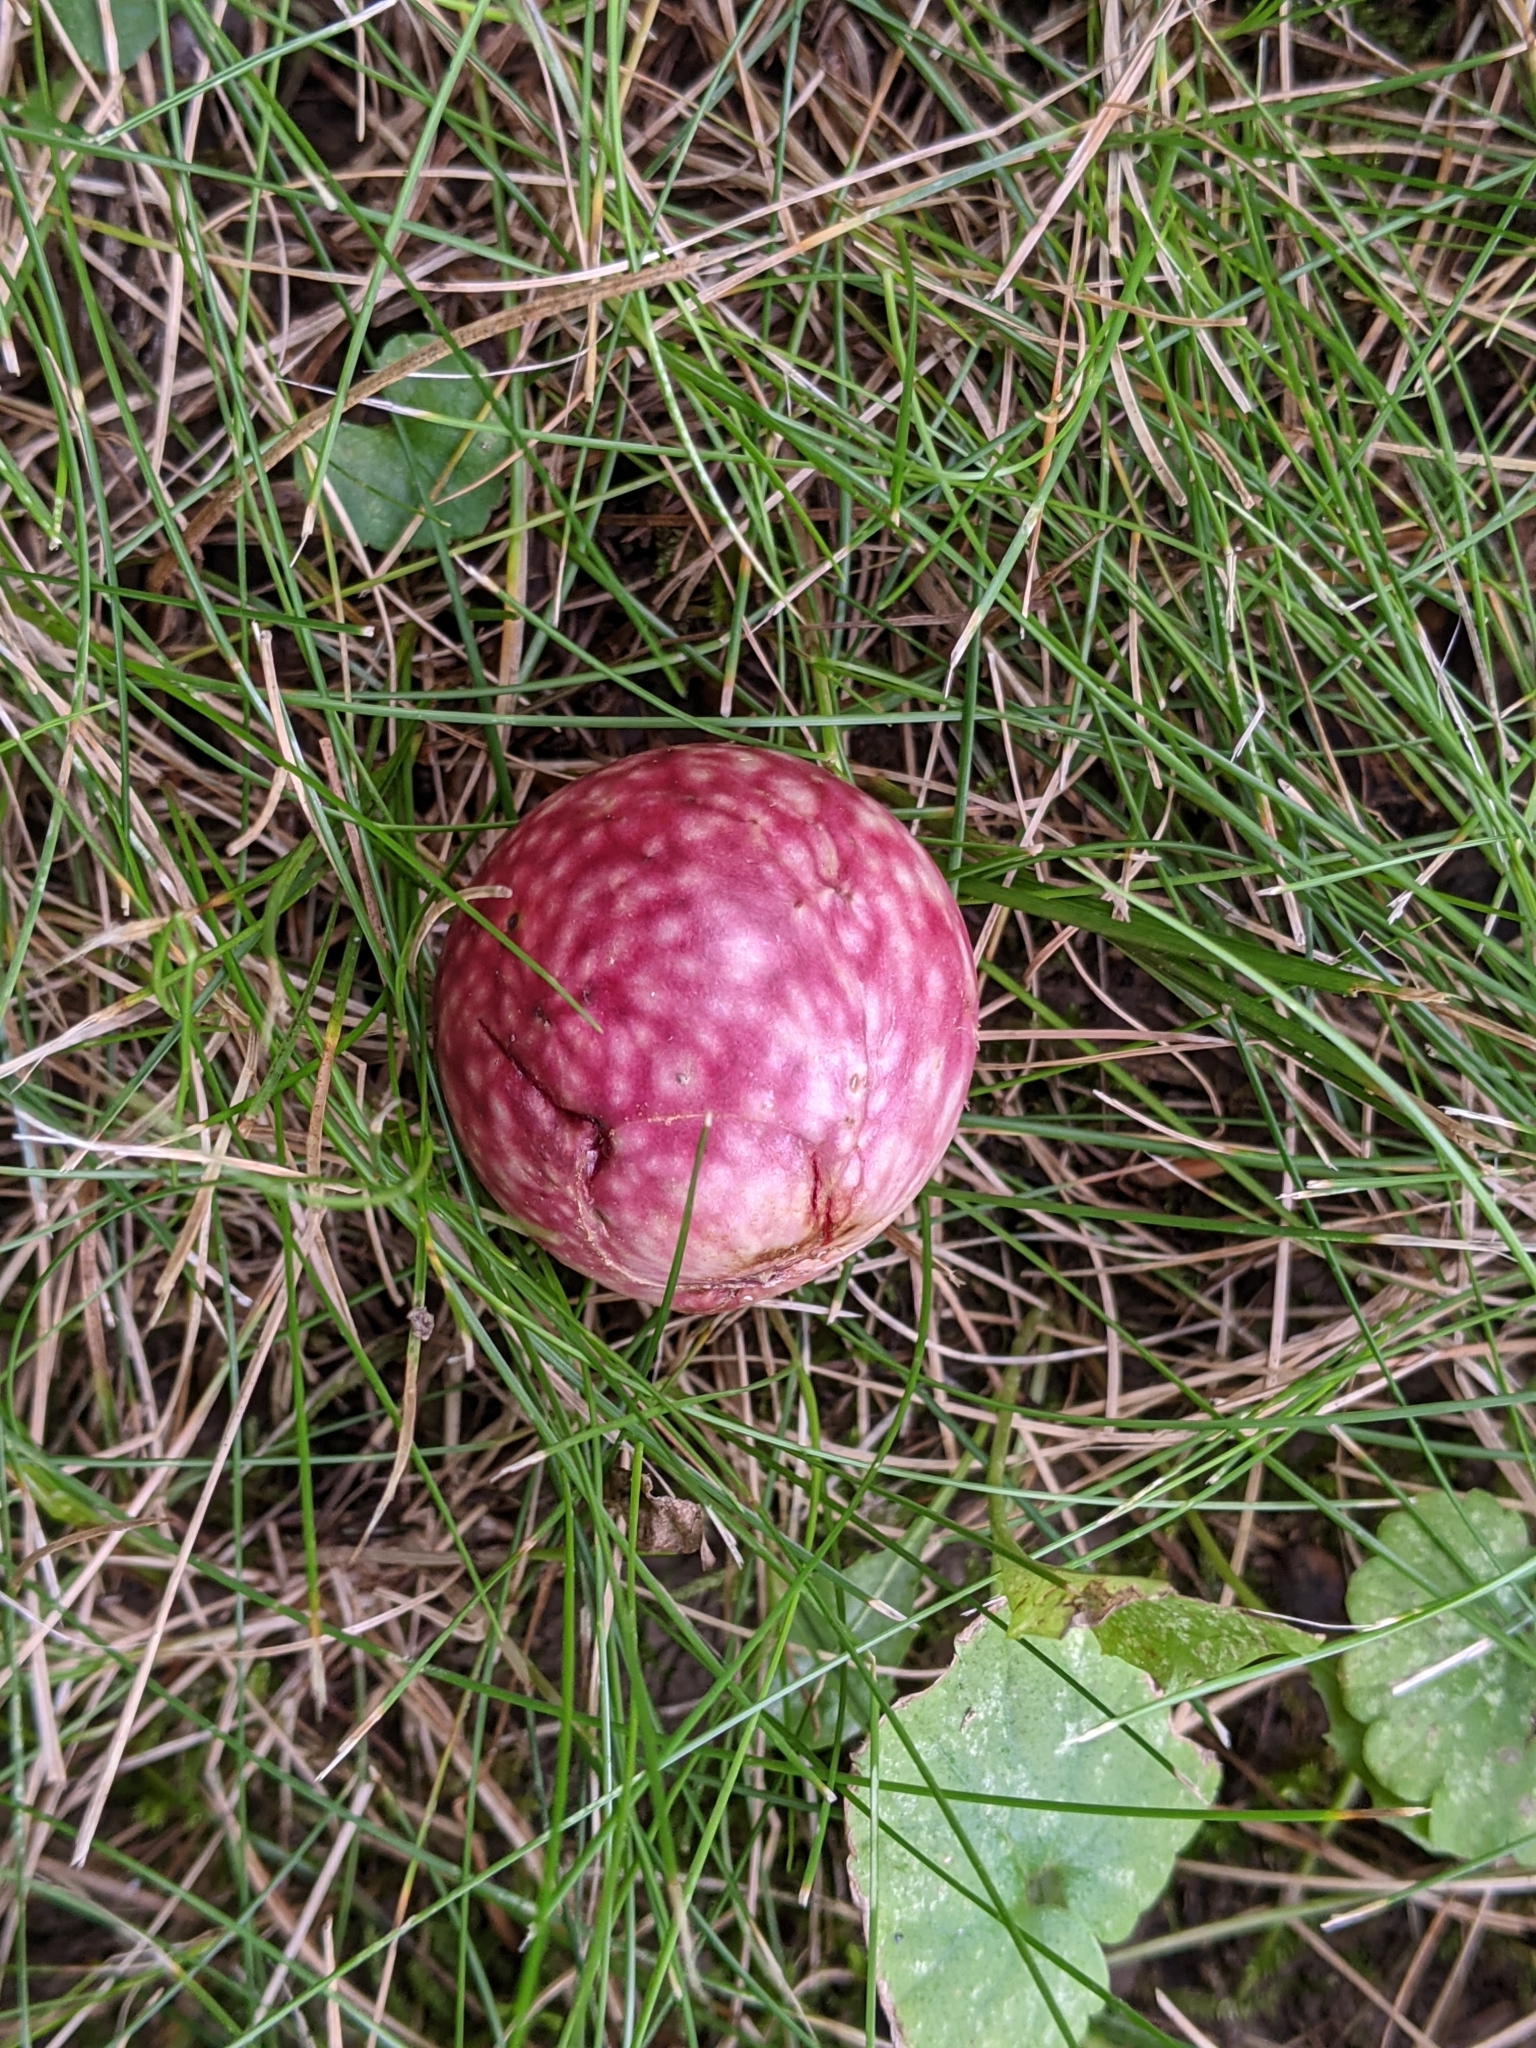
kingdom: Animalia
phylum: Arthropoda
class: Insecta
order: Hymenoptera
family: Cynipidae
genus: Amphibolips
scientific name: Amphibolips
